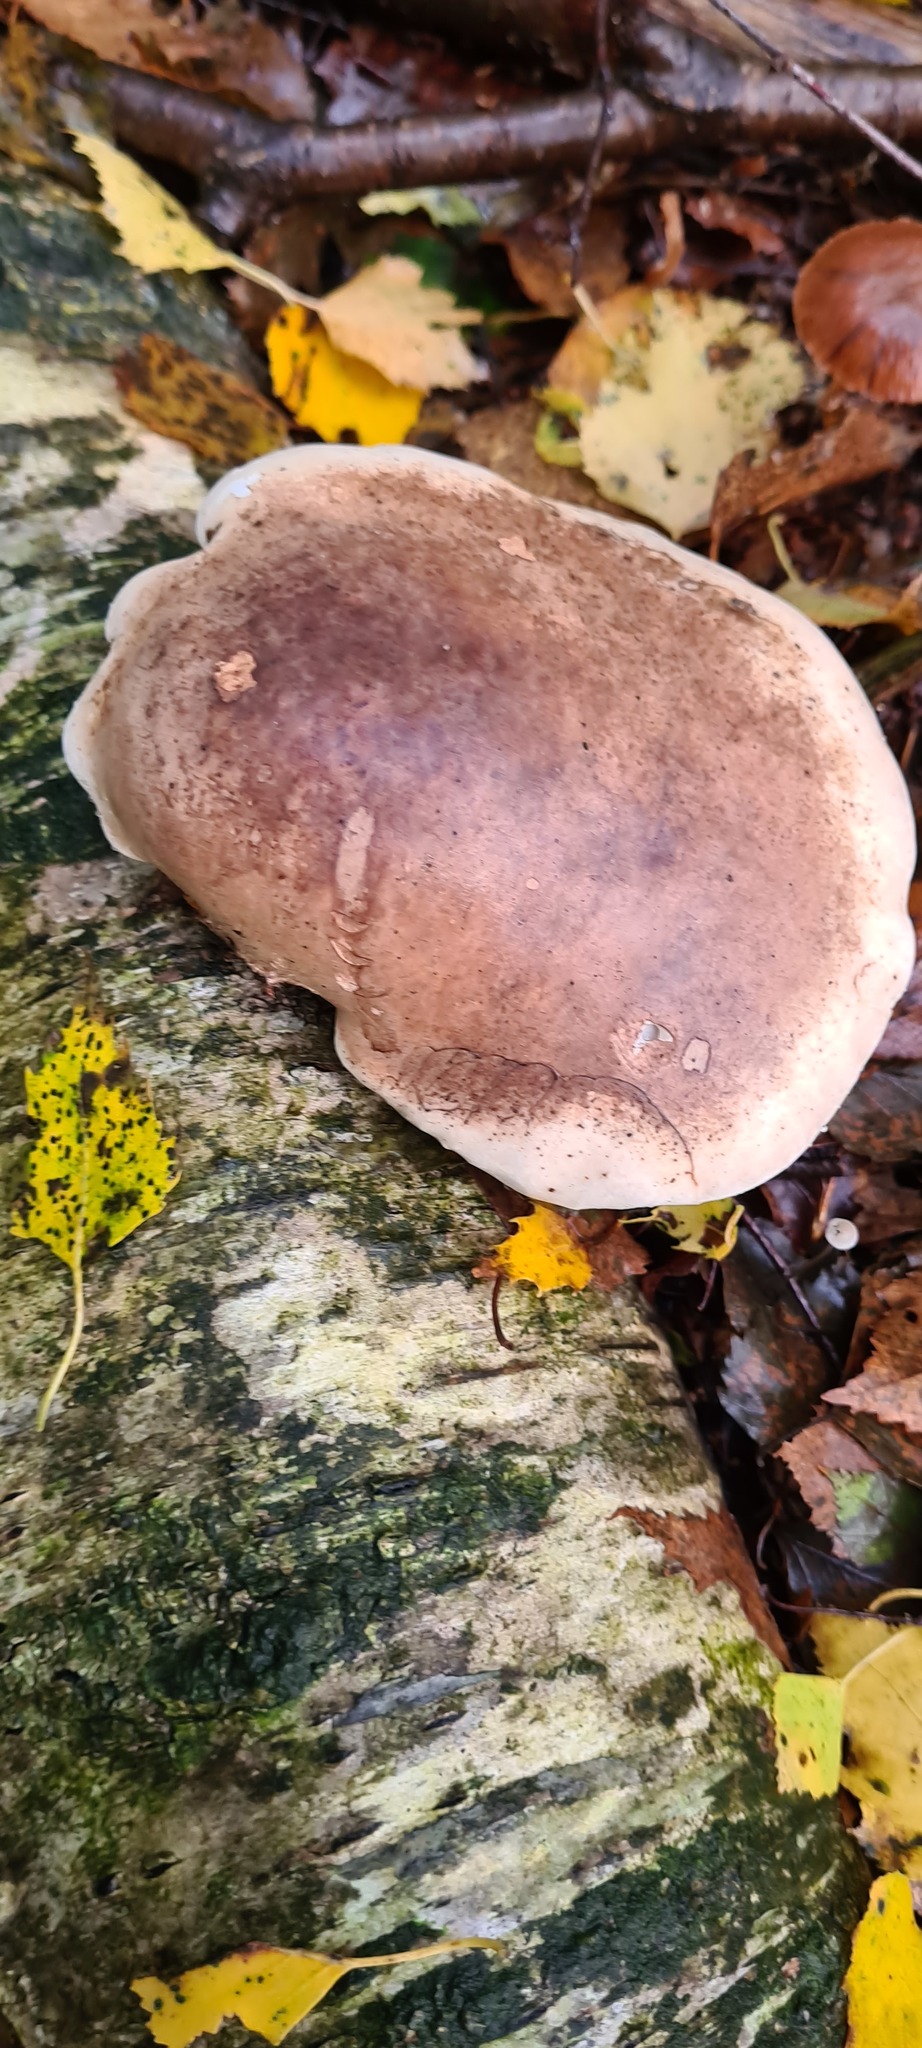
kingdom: Fungi
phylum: Basidiomycota
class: Agaricomycetes
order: Polyporales
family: Fomitopsidaceae
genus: Fomitopsis
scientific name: Fomitopsis betulina
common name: Birch polypore
